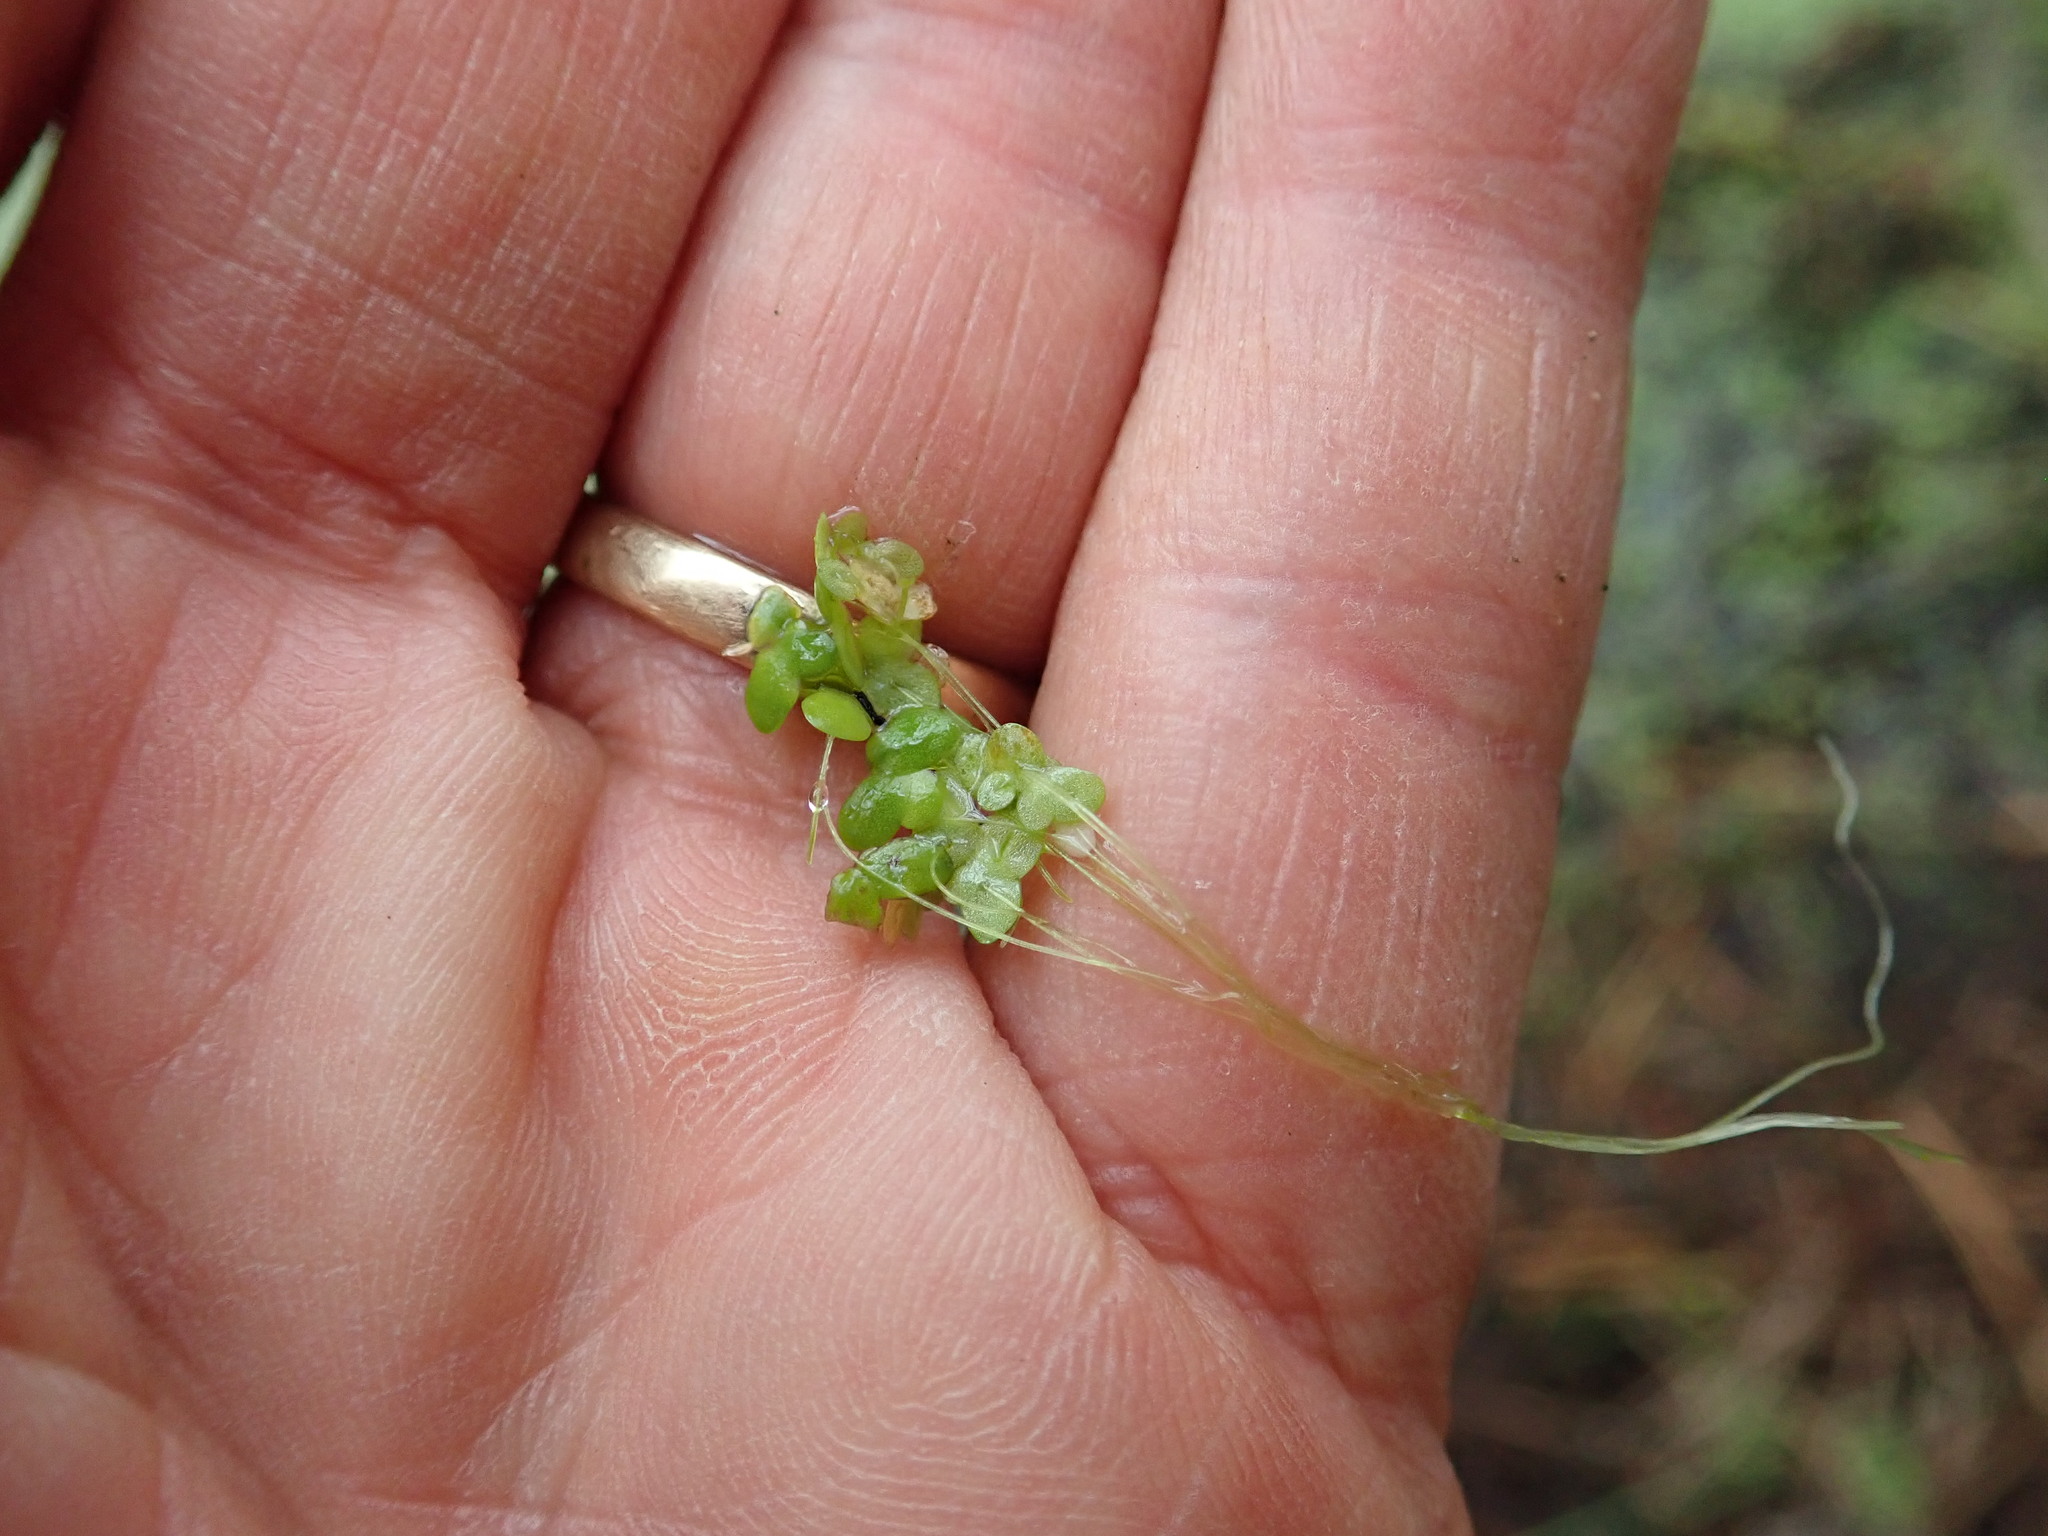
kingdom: Plantae
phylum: Tracheophyta
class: Liliopsida
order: Alismatales
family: Araceae
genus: Lemna
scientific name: Lemna disperma
